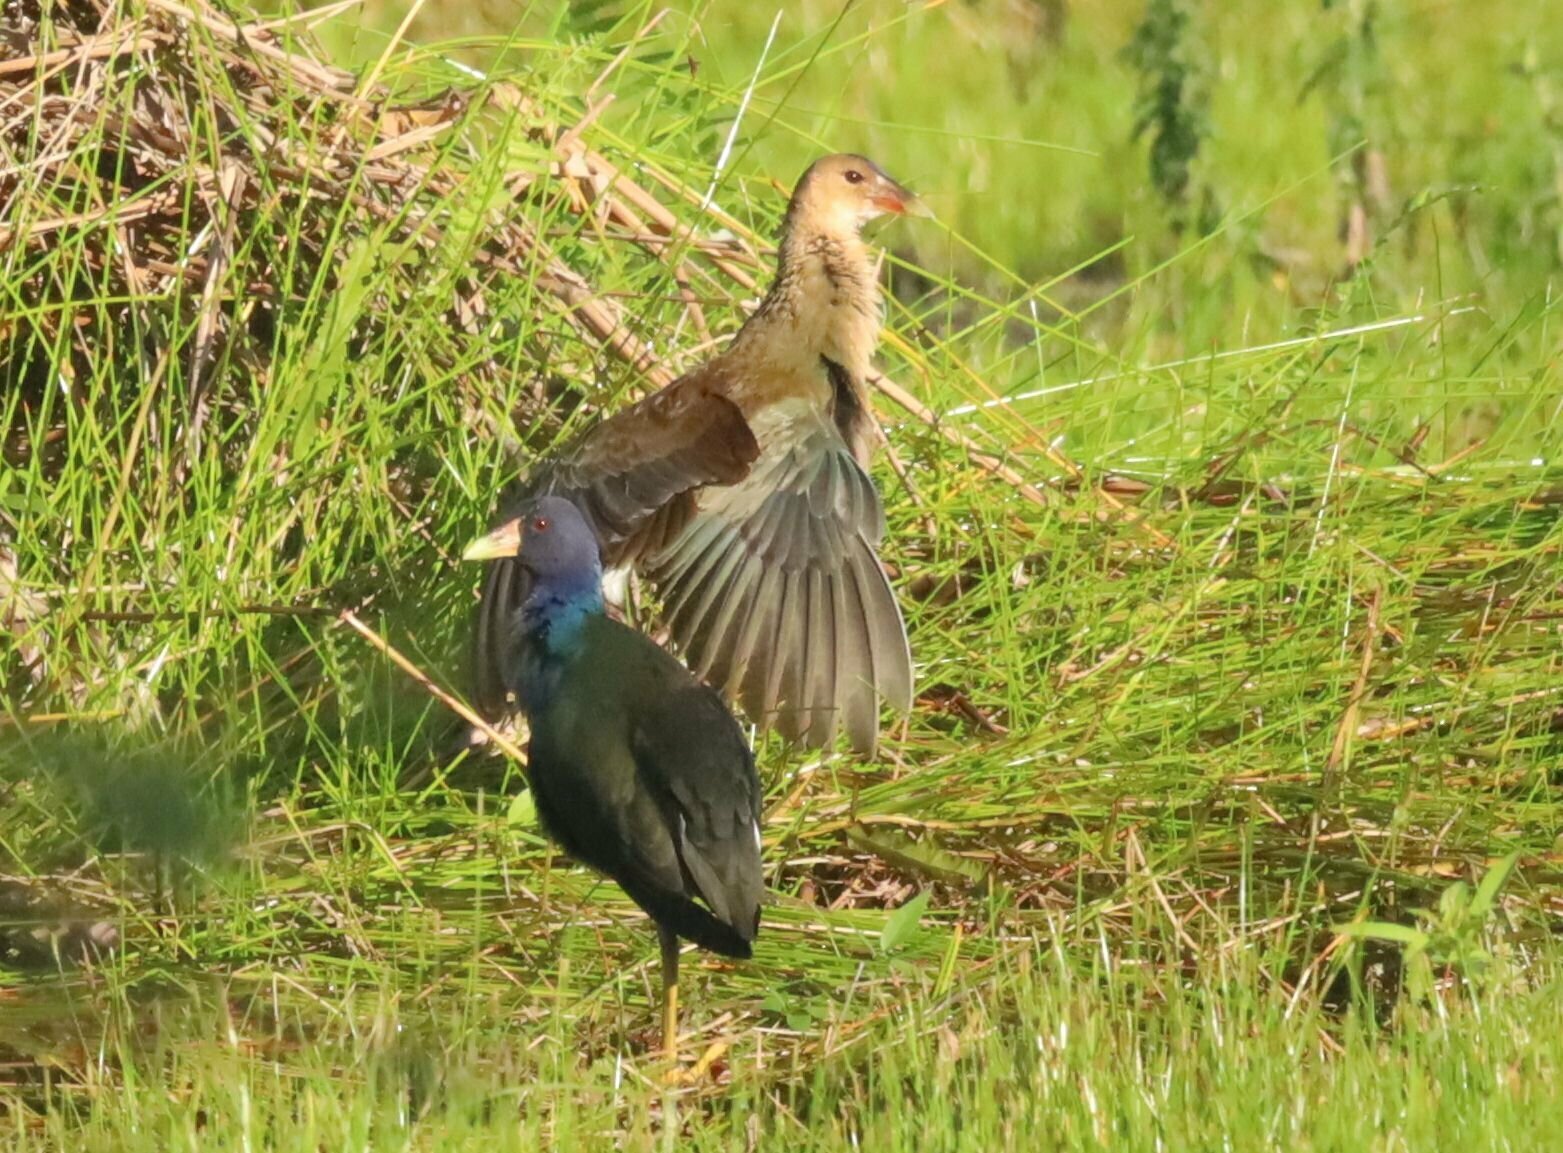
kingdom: Animalia
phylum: Chordata
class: Aves
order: Gruiformes
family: Rallidae
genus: Porphyrio
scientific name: Porphyrio martinica
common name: Purple gallinule
